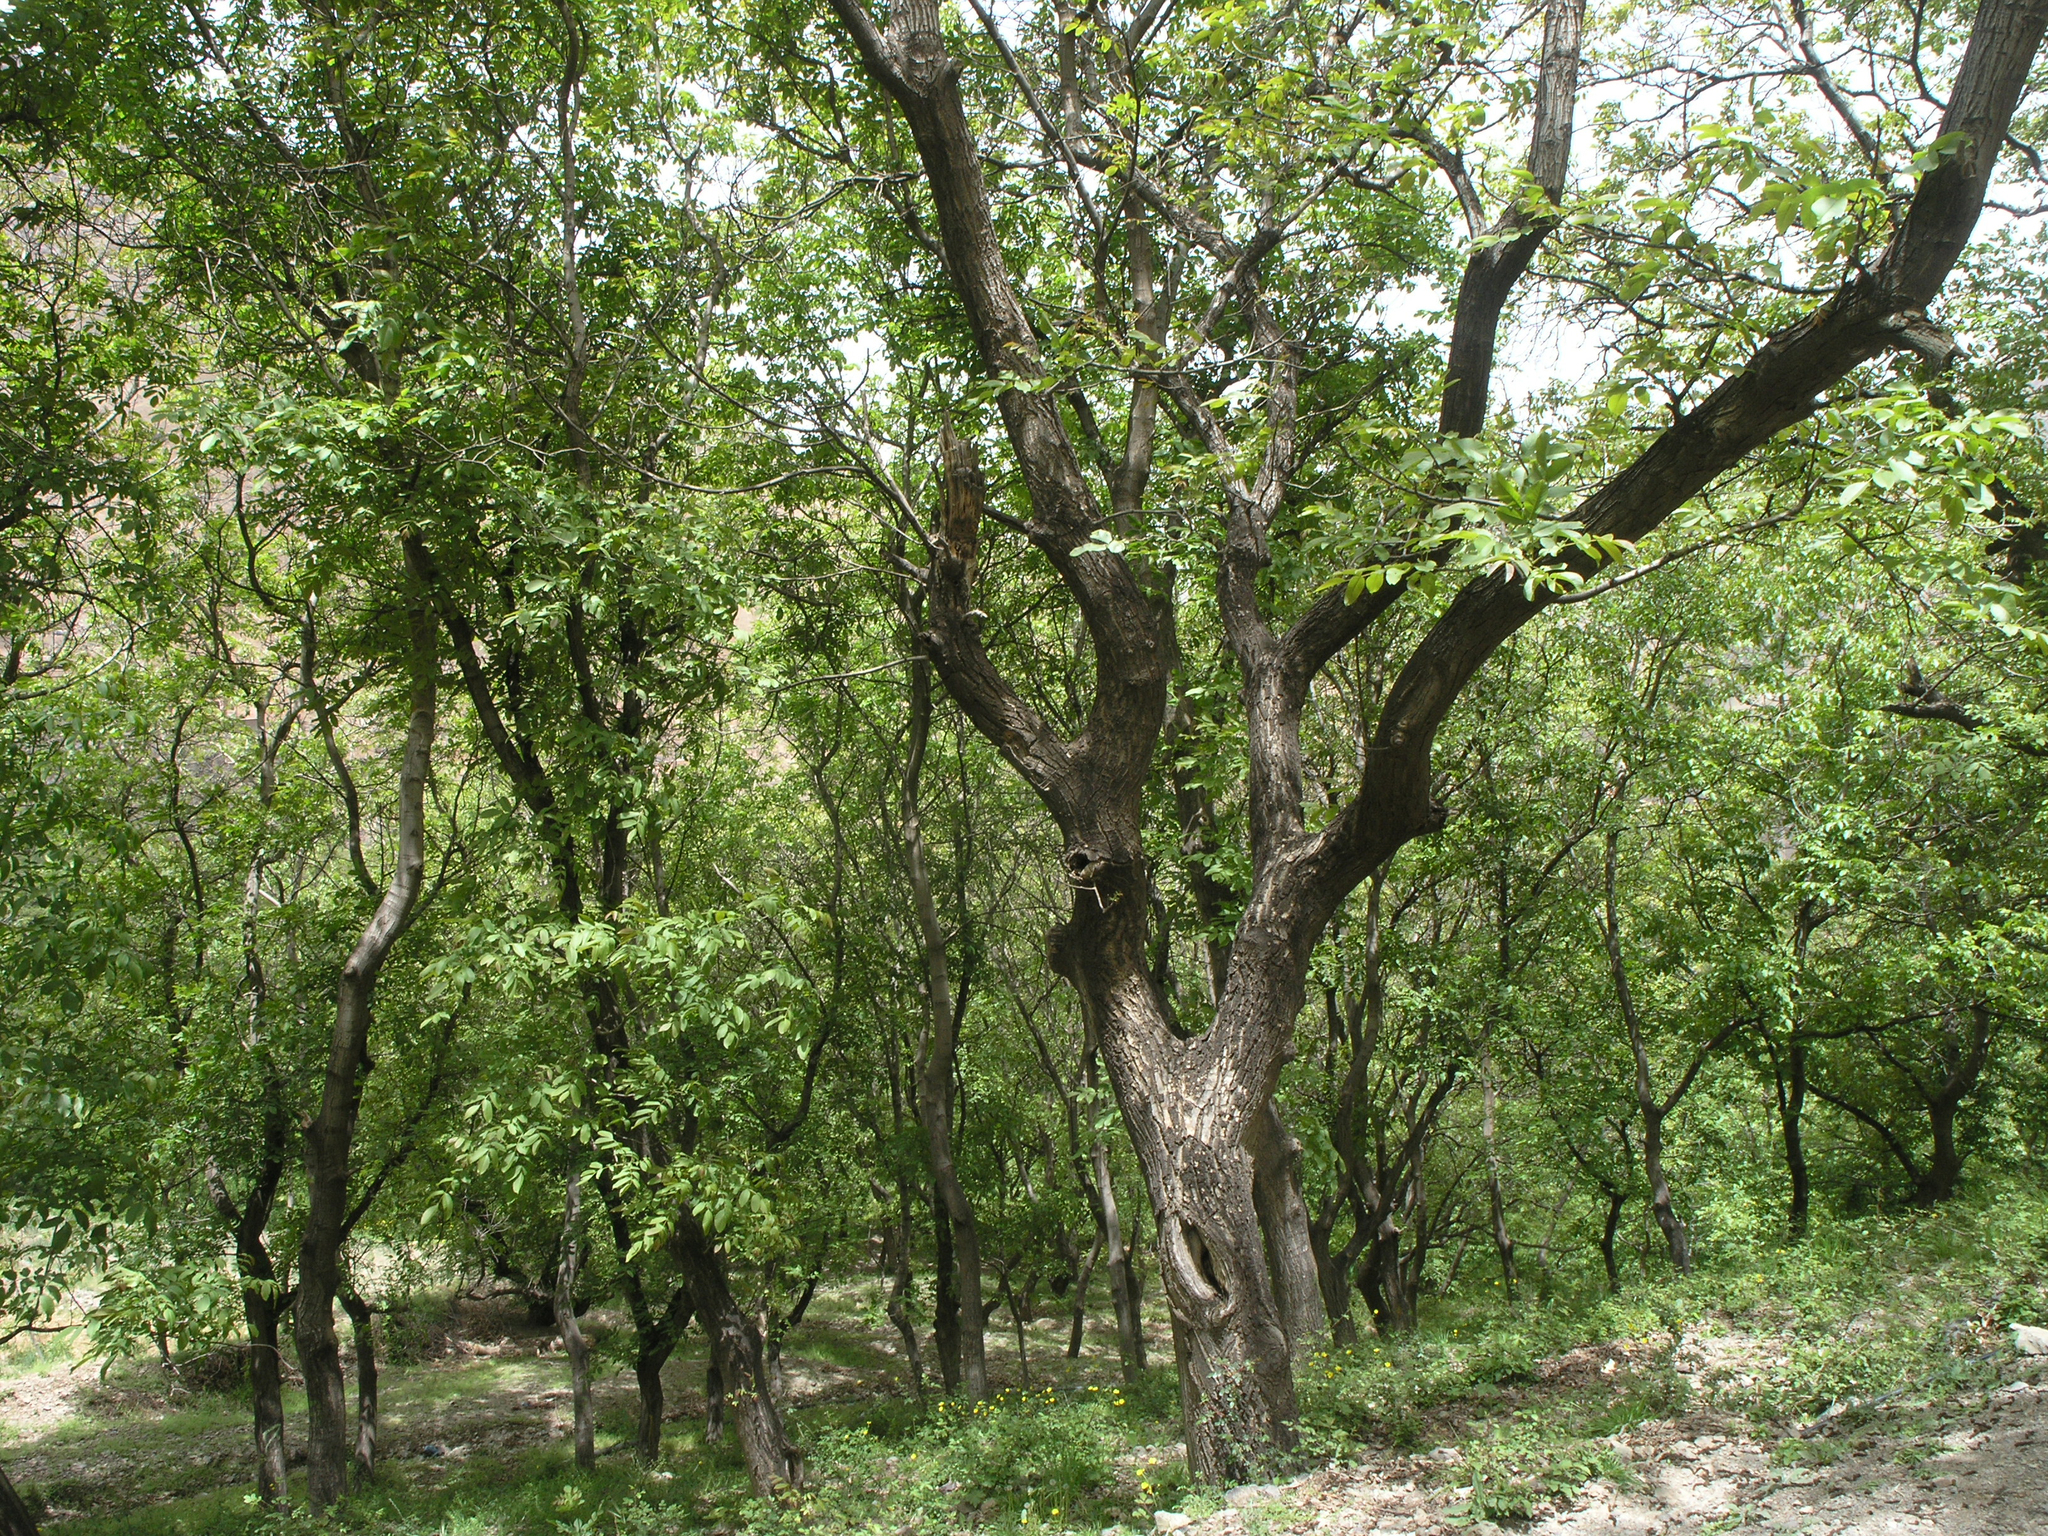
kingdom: Plantae
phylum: Tracheophyta
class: Magnoliopsida
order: Fagales
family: Juglandaceae
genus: Juglans
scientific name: Juglans regia
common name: Walnut
